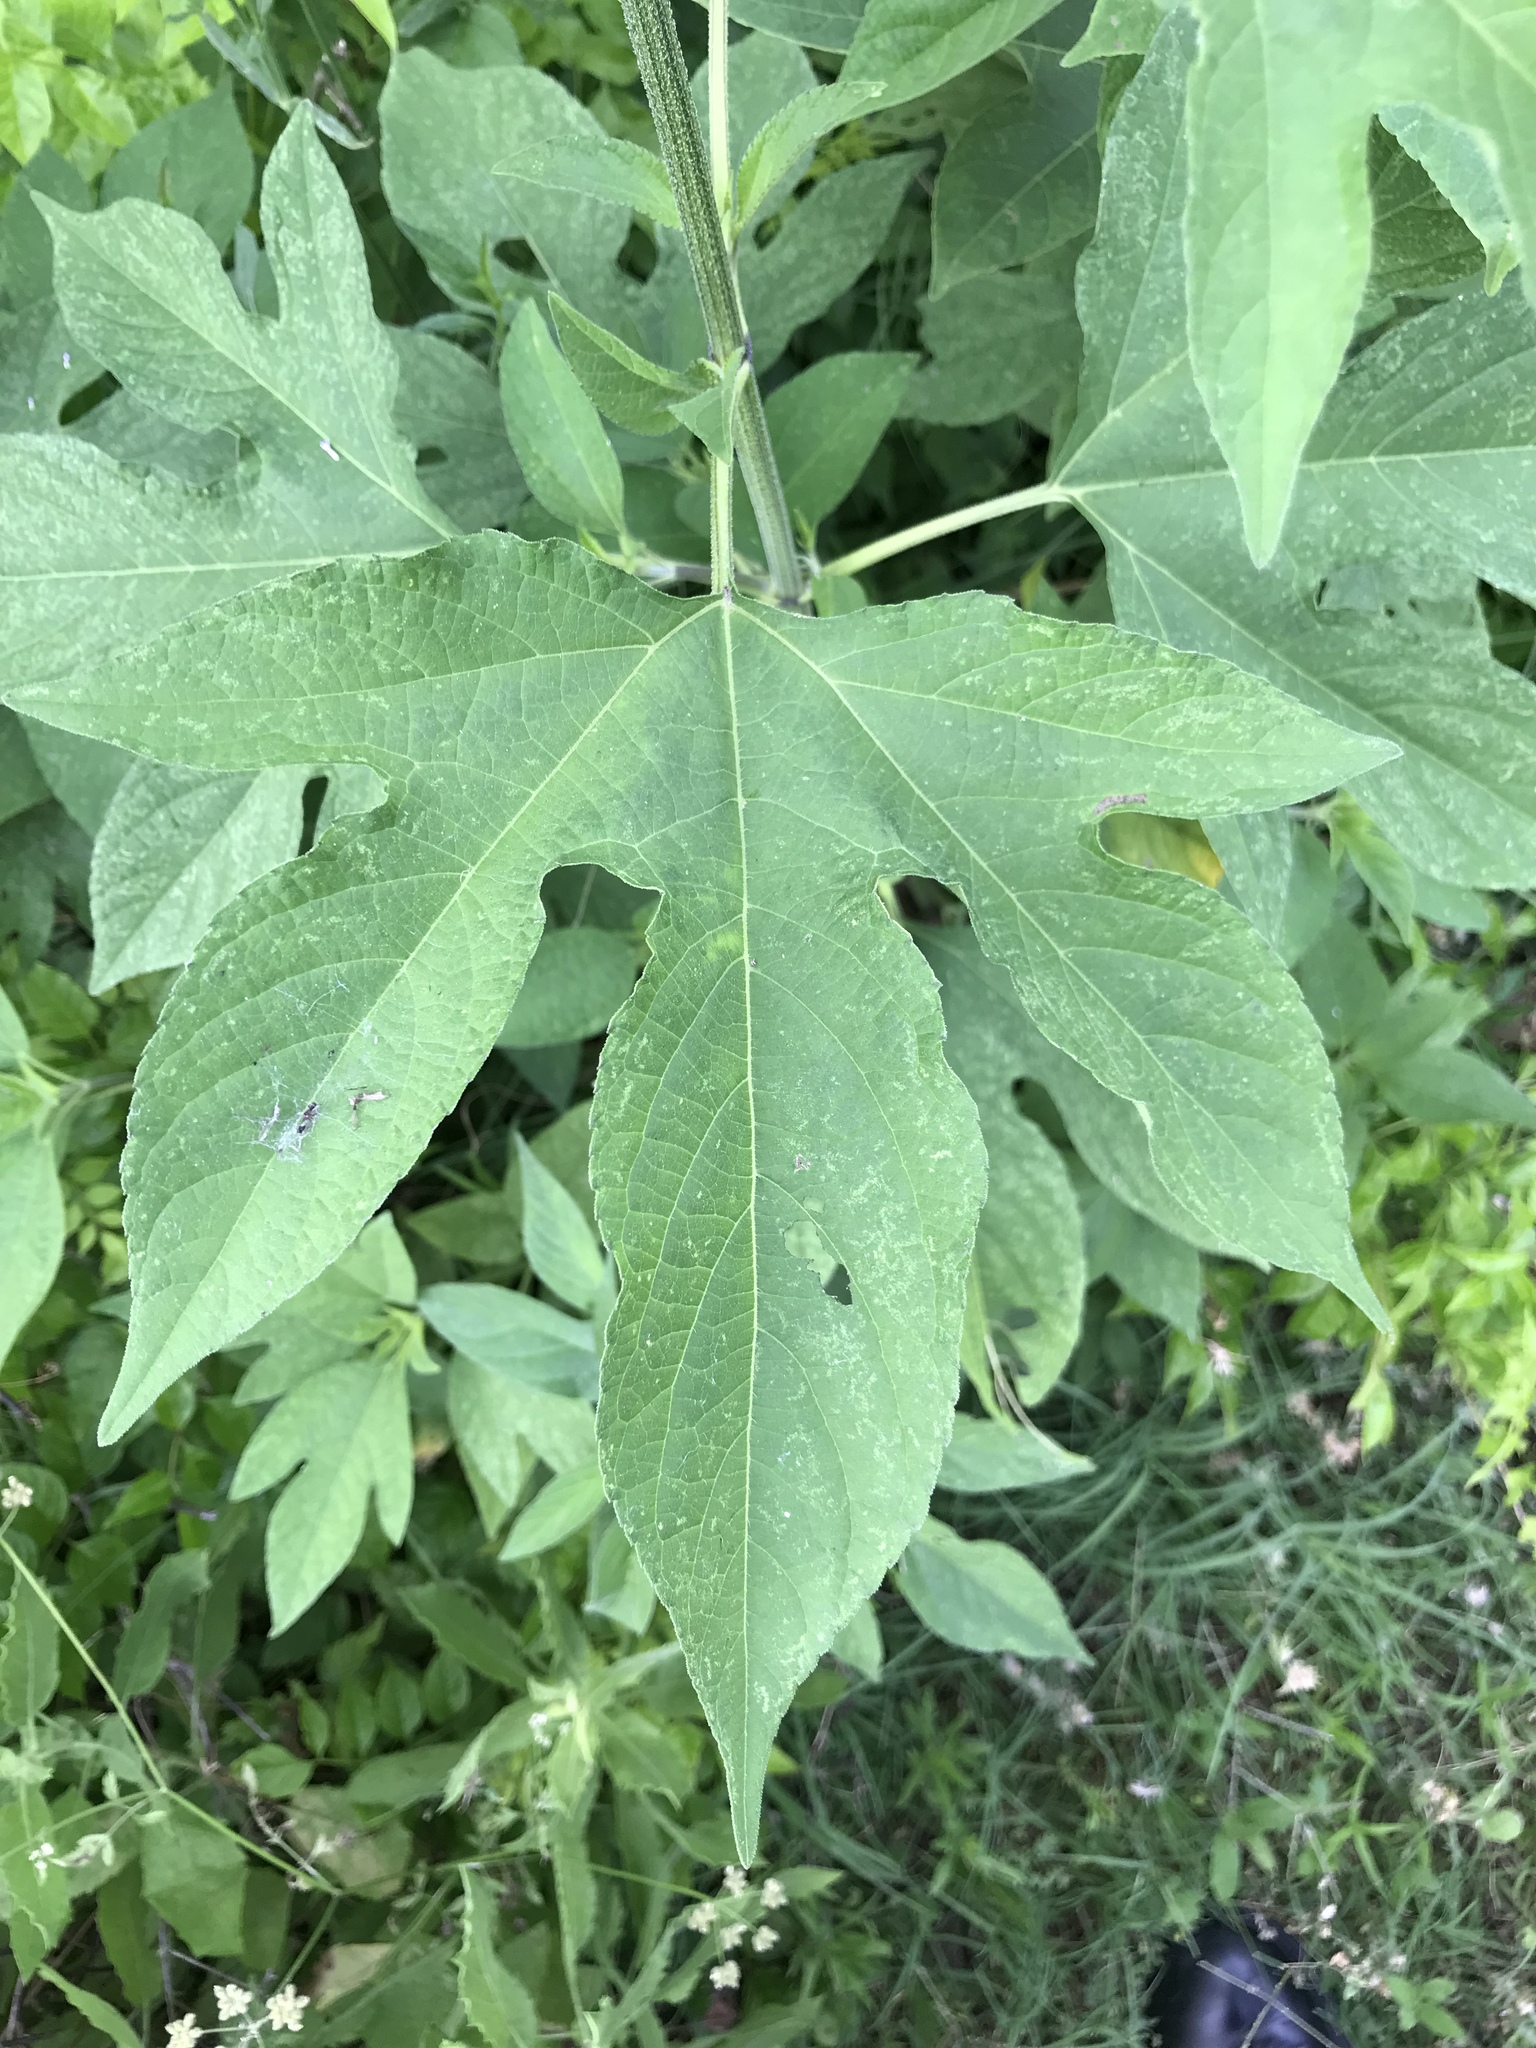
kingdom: Plantae
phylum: Tracheophyta
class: Magnoliopsida
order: Asterales
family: Asteraceae
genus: Ambrosia
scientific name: Ambrosia trifida
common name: Giant ragweed
